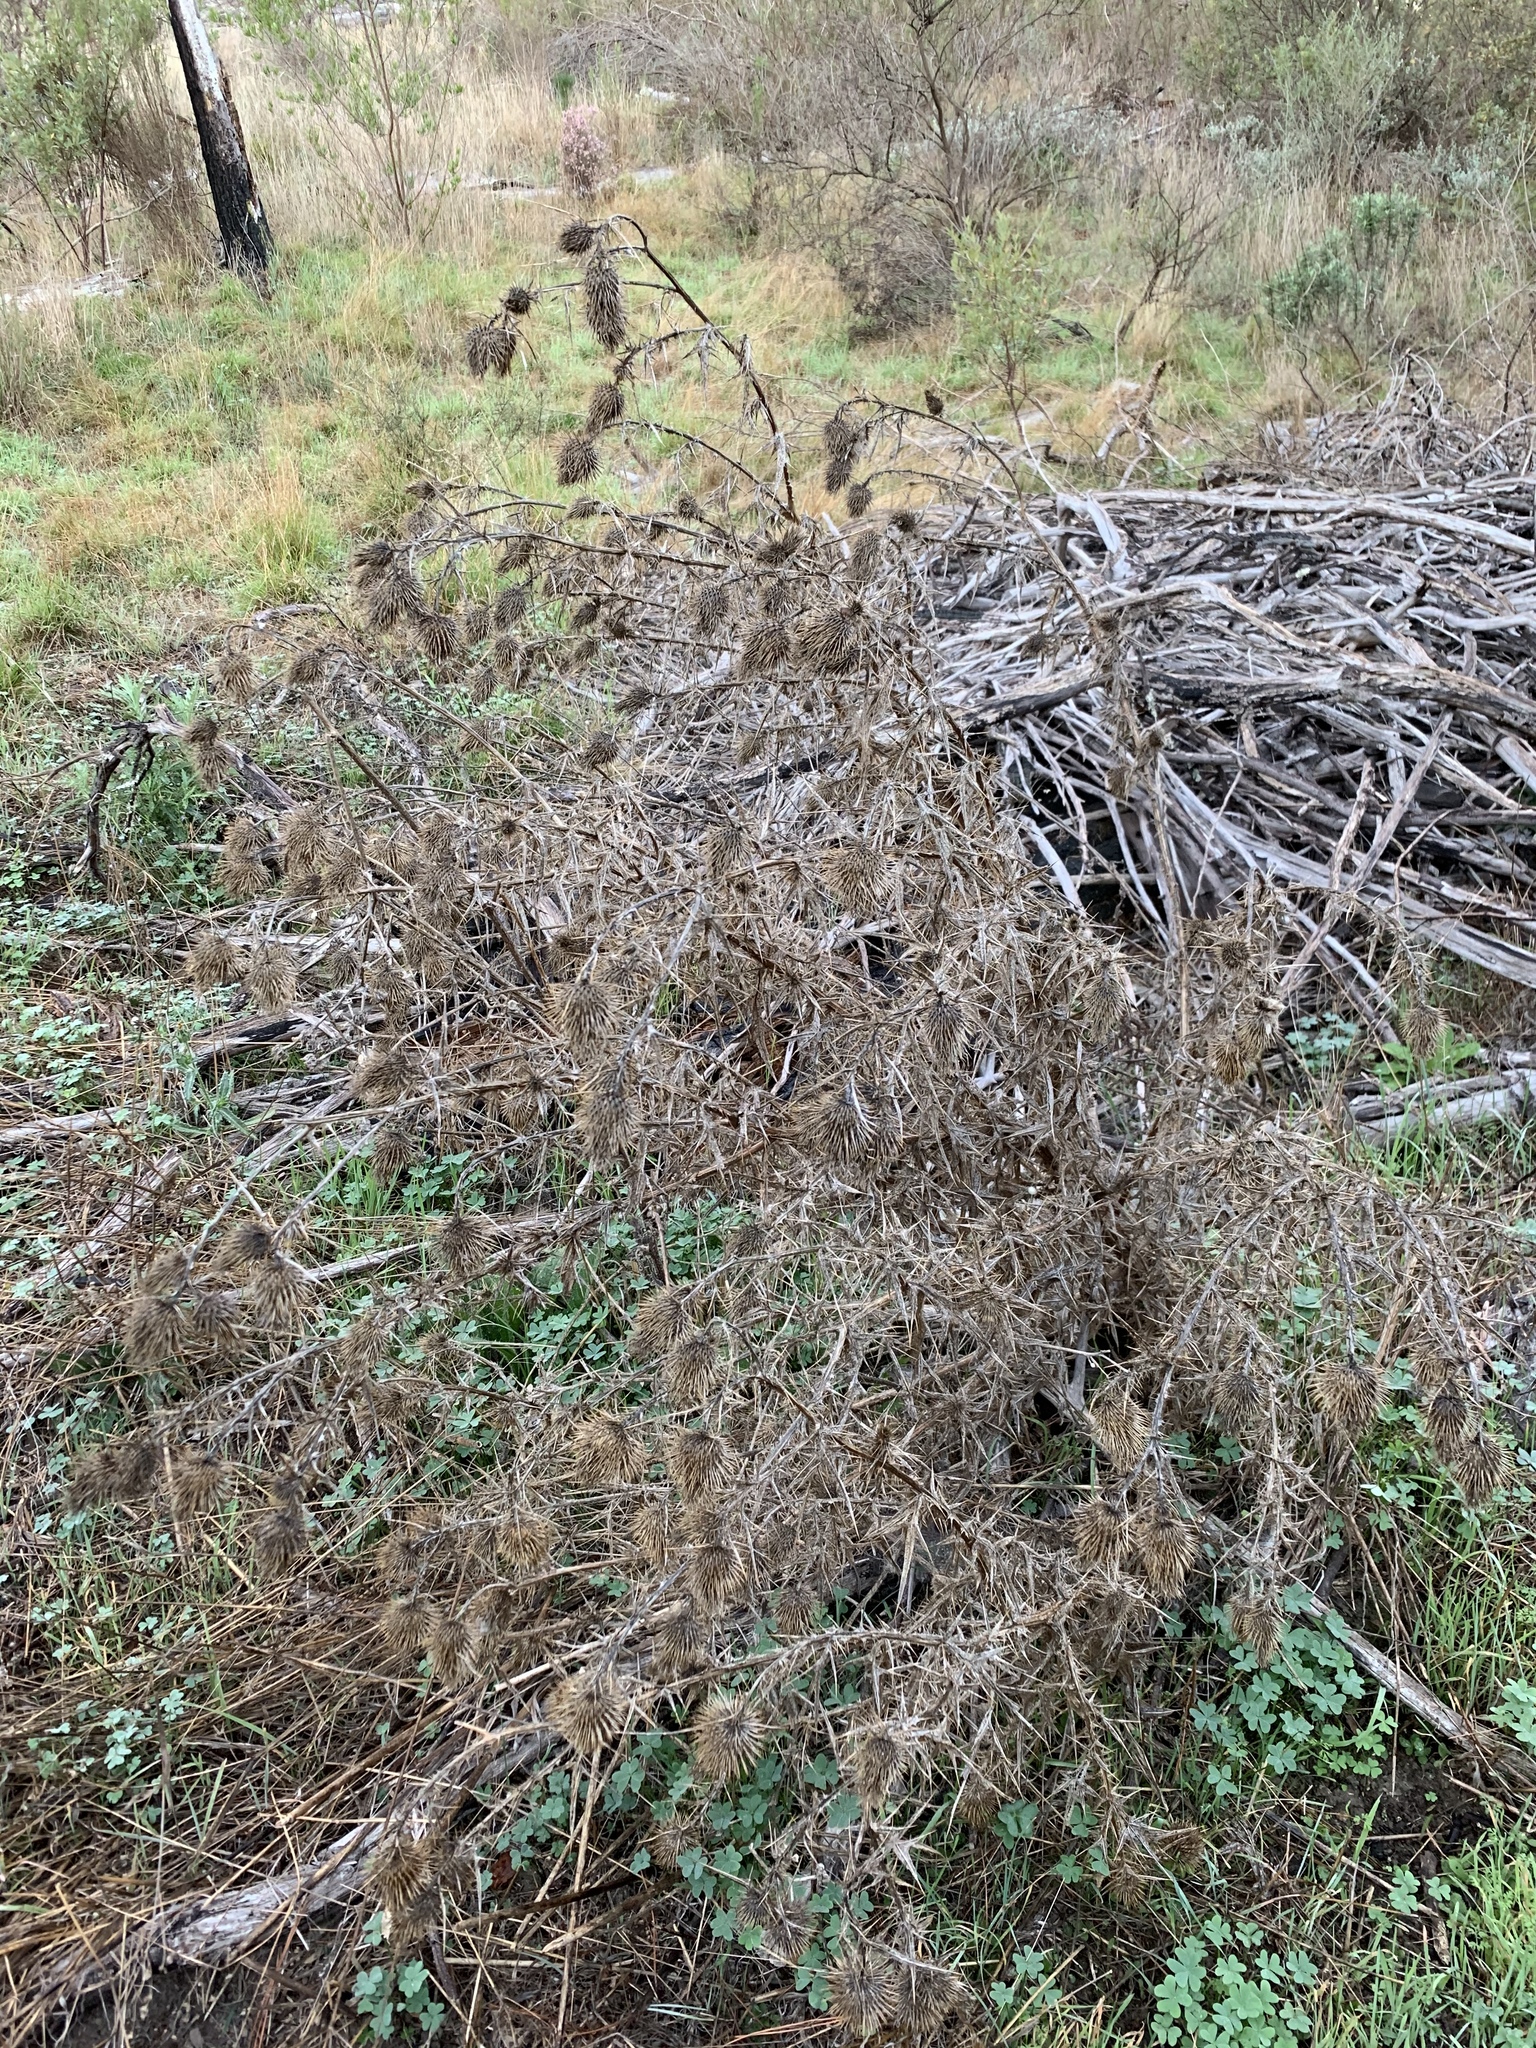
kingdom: Plantae
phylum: Tracheophyta
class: Magnoliopsida
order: Asterales
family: Asteraceae
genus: Cirsium
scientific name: Cirsium vulgare
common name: Bull thistle
